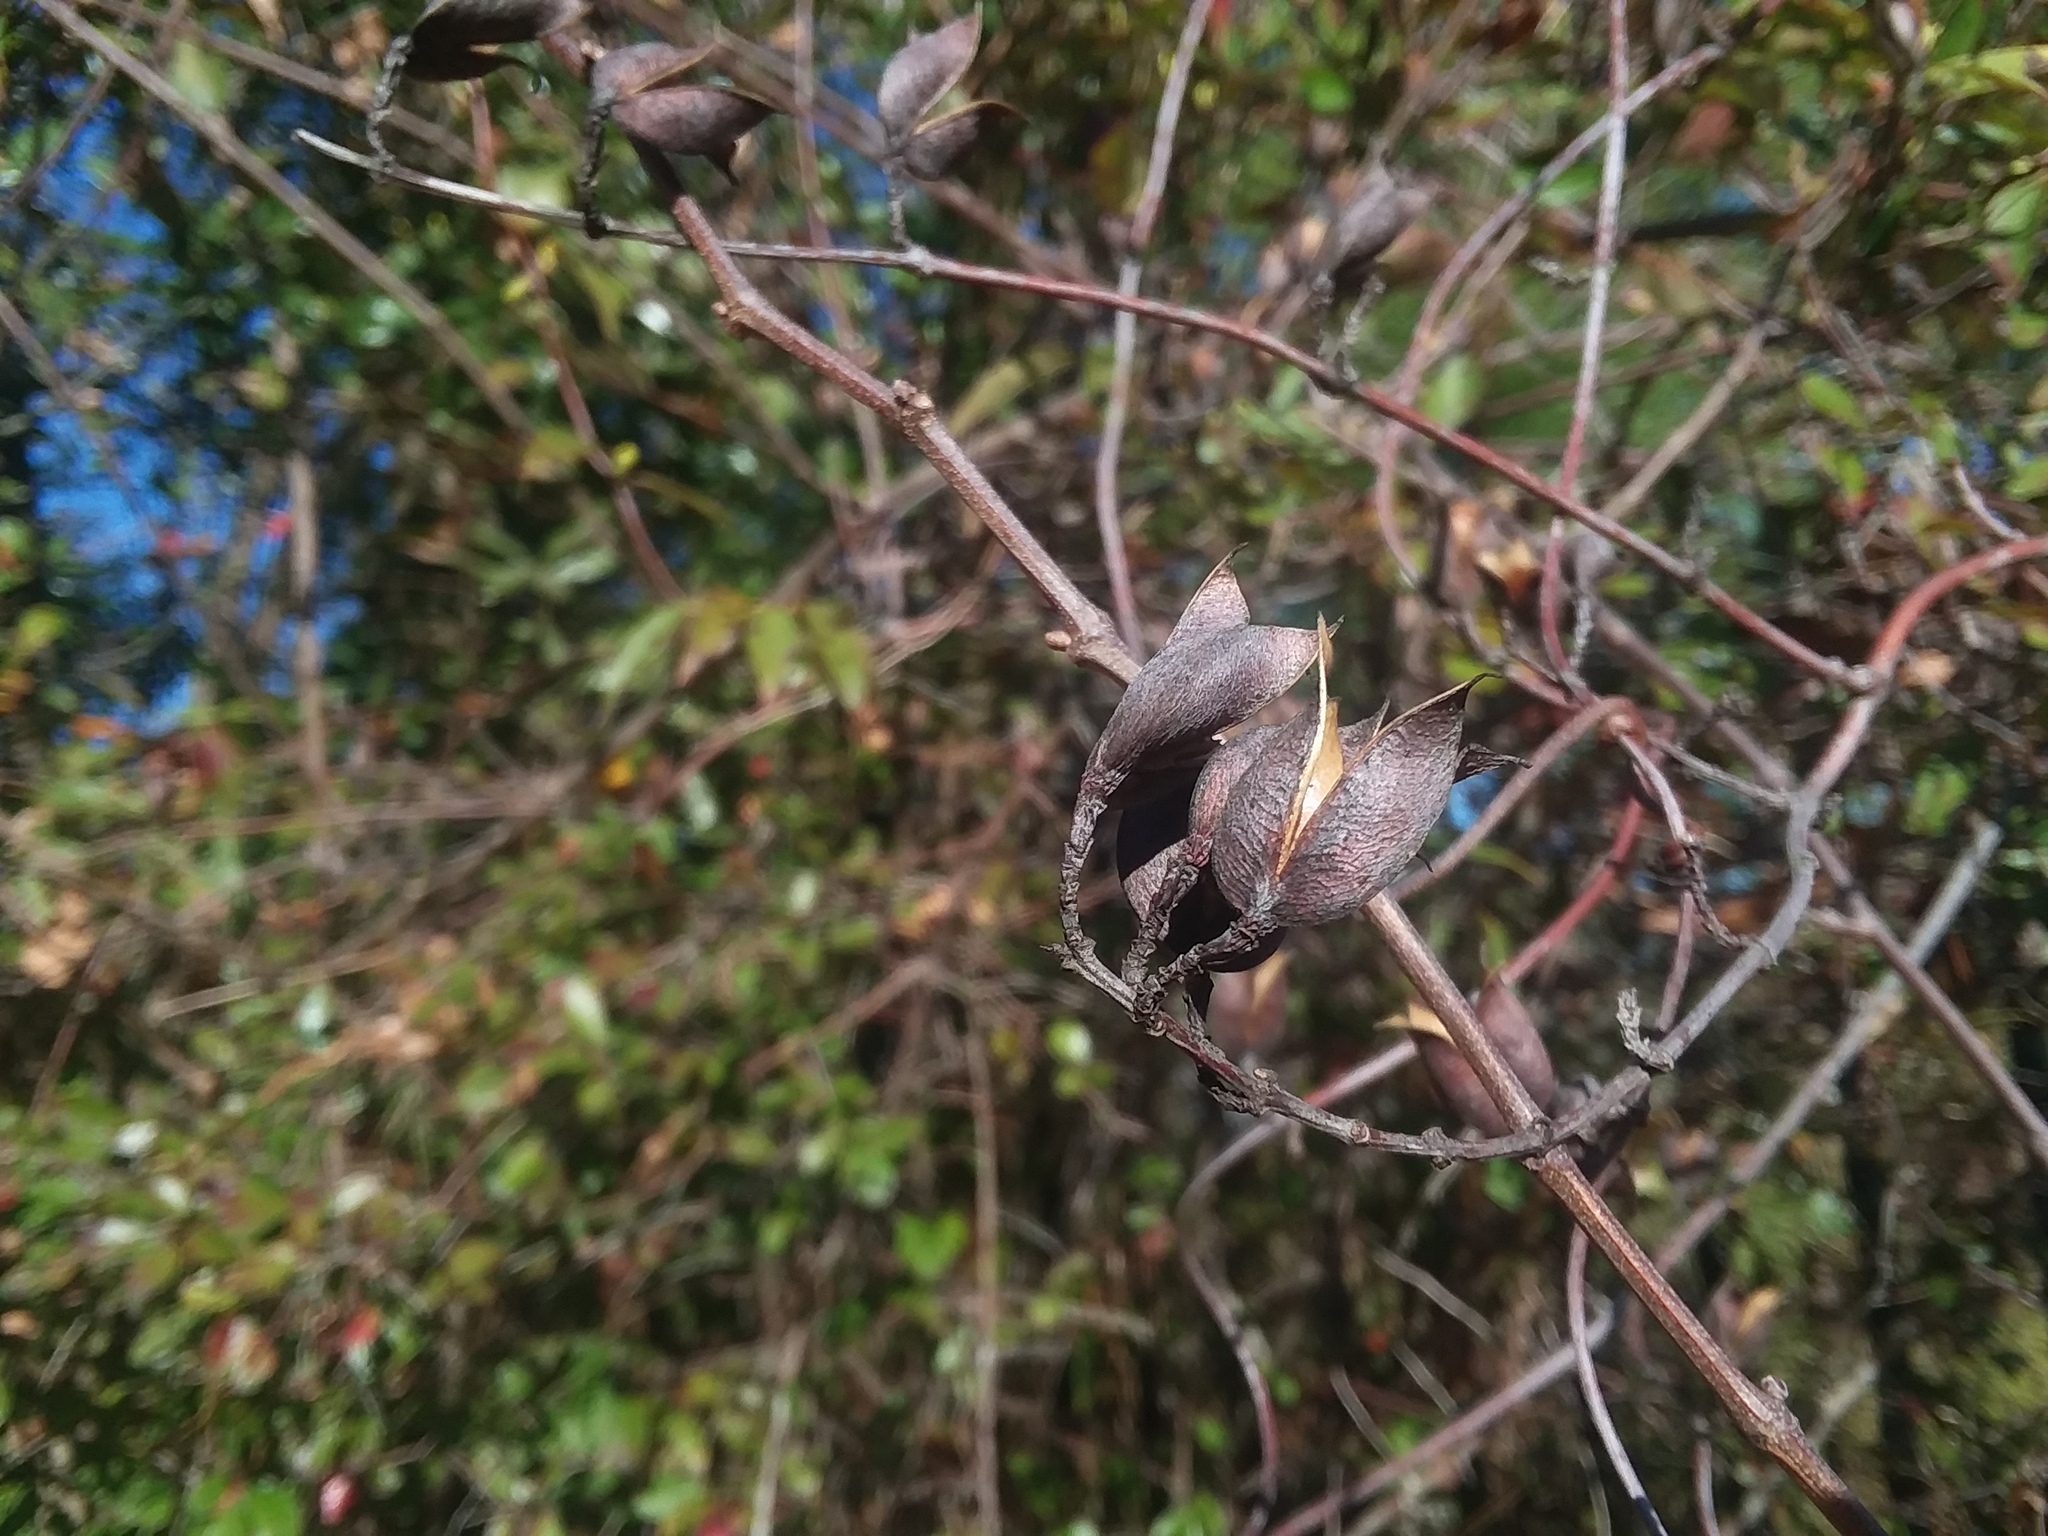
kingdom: Plantae
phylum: Tracheophyta
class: Magnoliopsida
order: Gentianales
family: Gelsemiaceae
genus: Gelsemium
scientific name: Gelsemium sempervirens
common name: Carolina-jasmine
